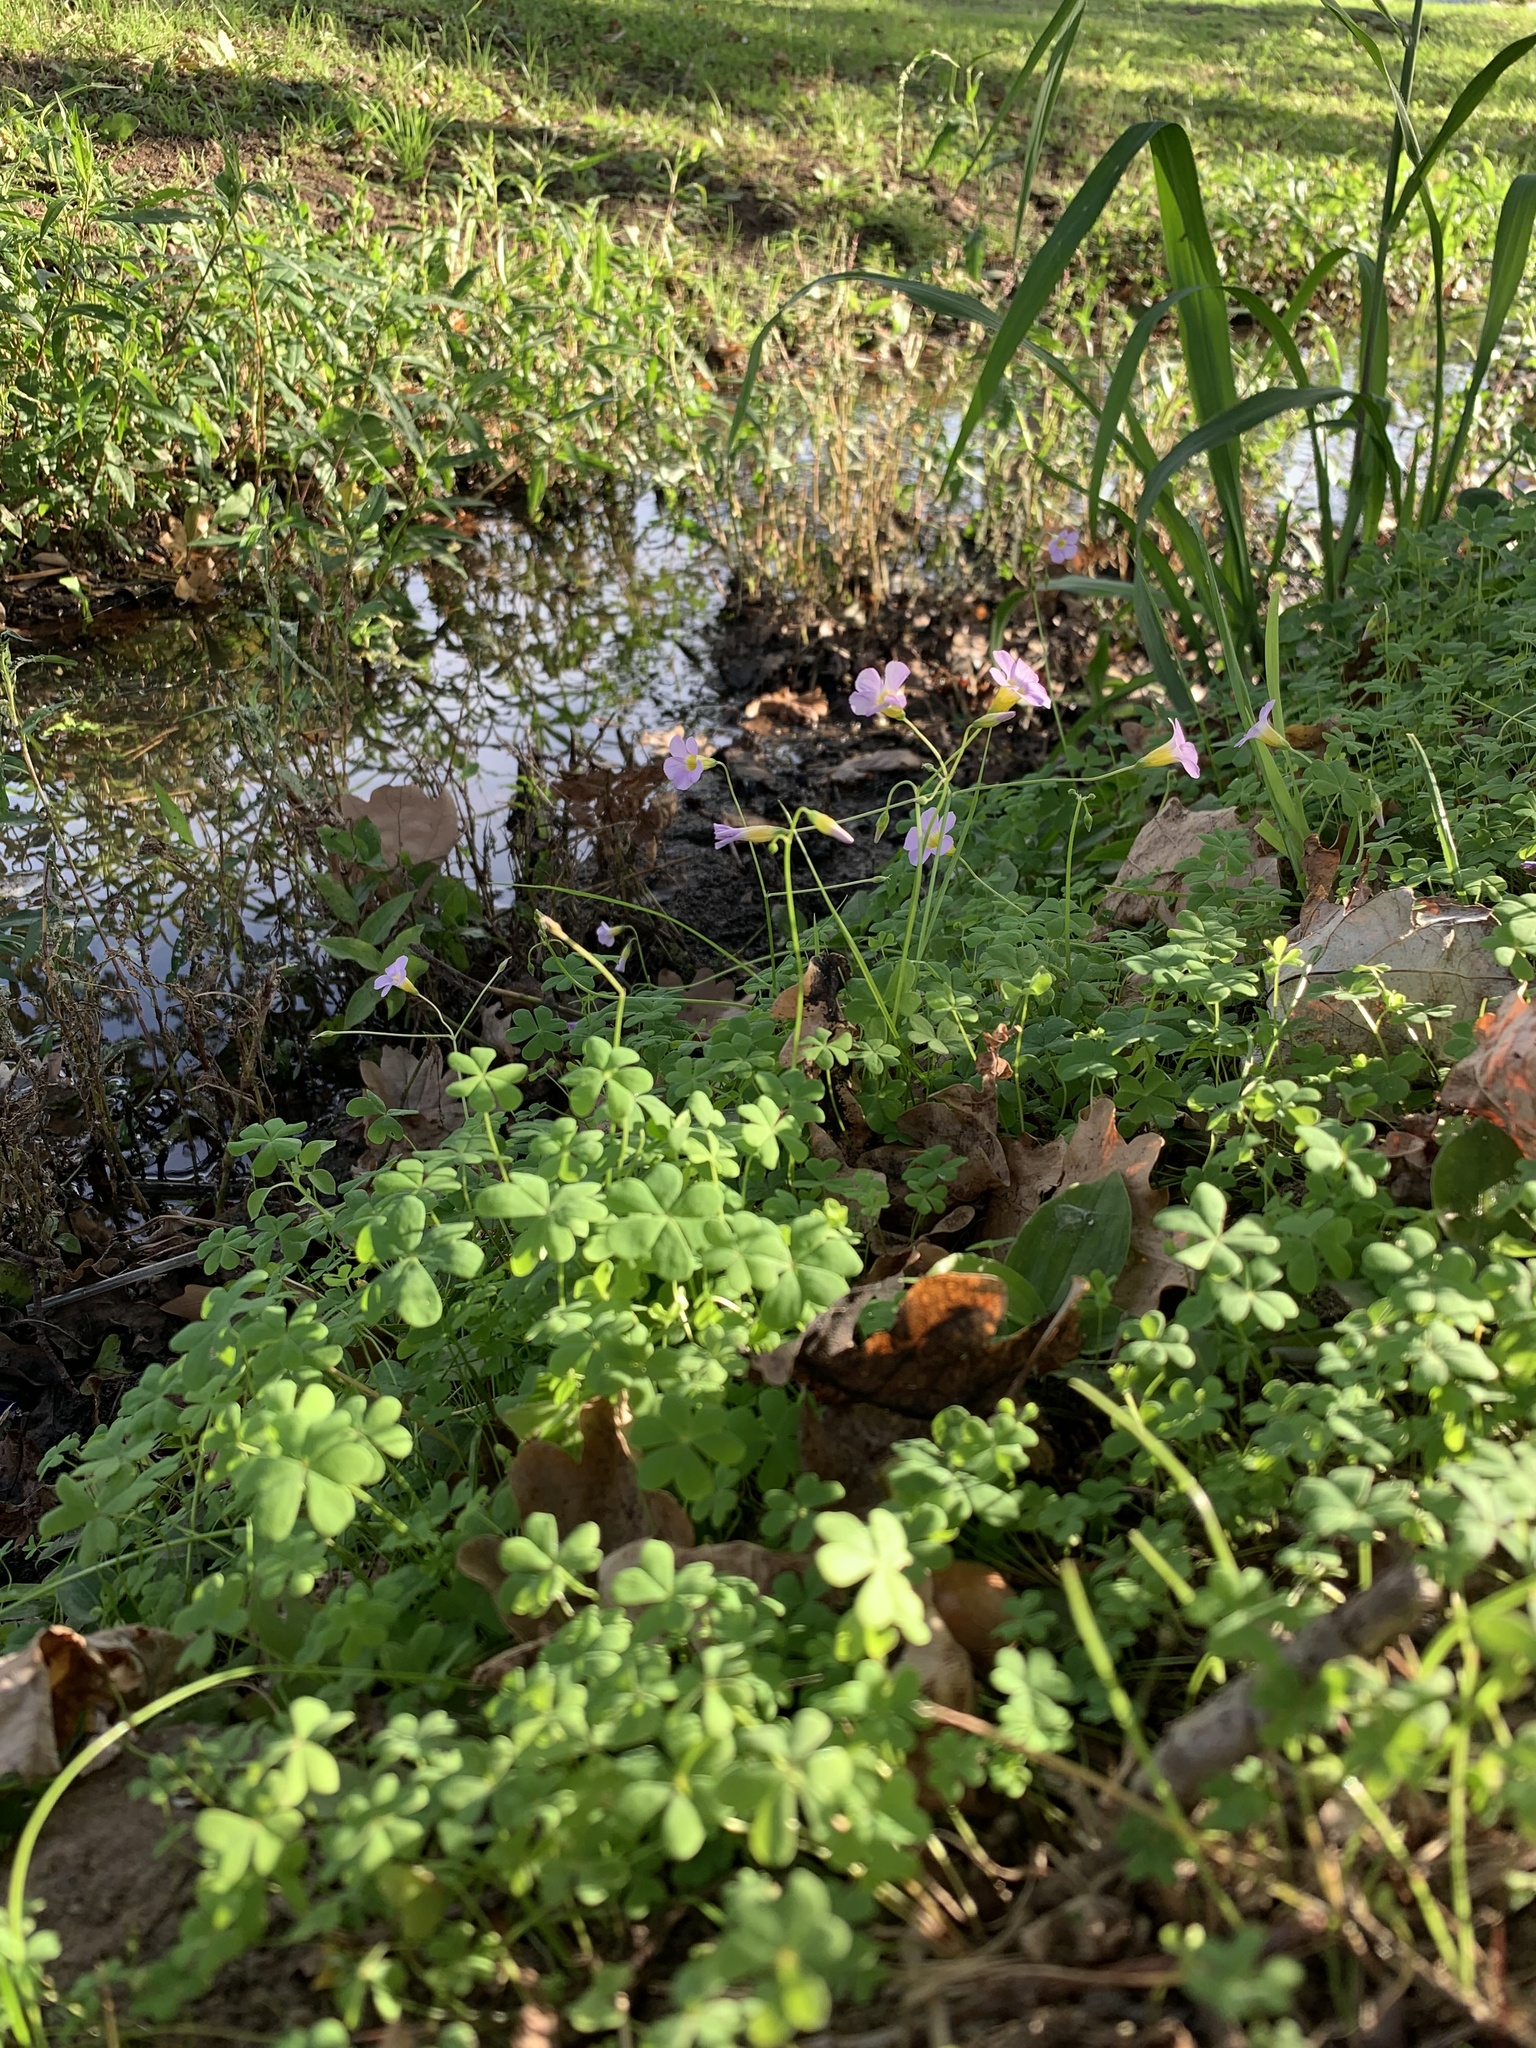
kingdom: Plantae
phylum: Tracheophyta
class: Magnoliopsida
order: Oxalidales
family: Oxalidaceae
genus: Oxalis
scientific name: Oxalis caprina
